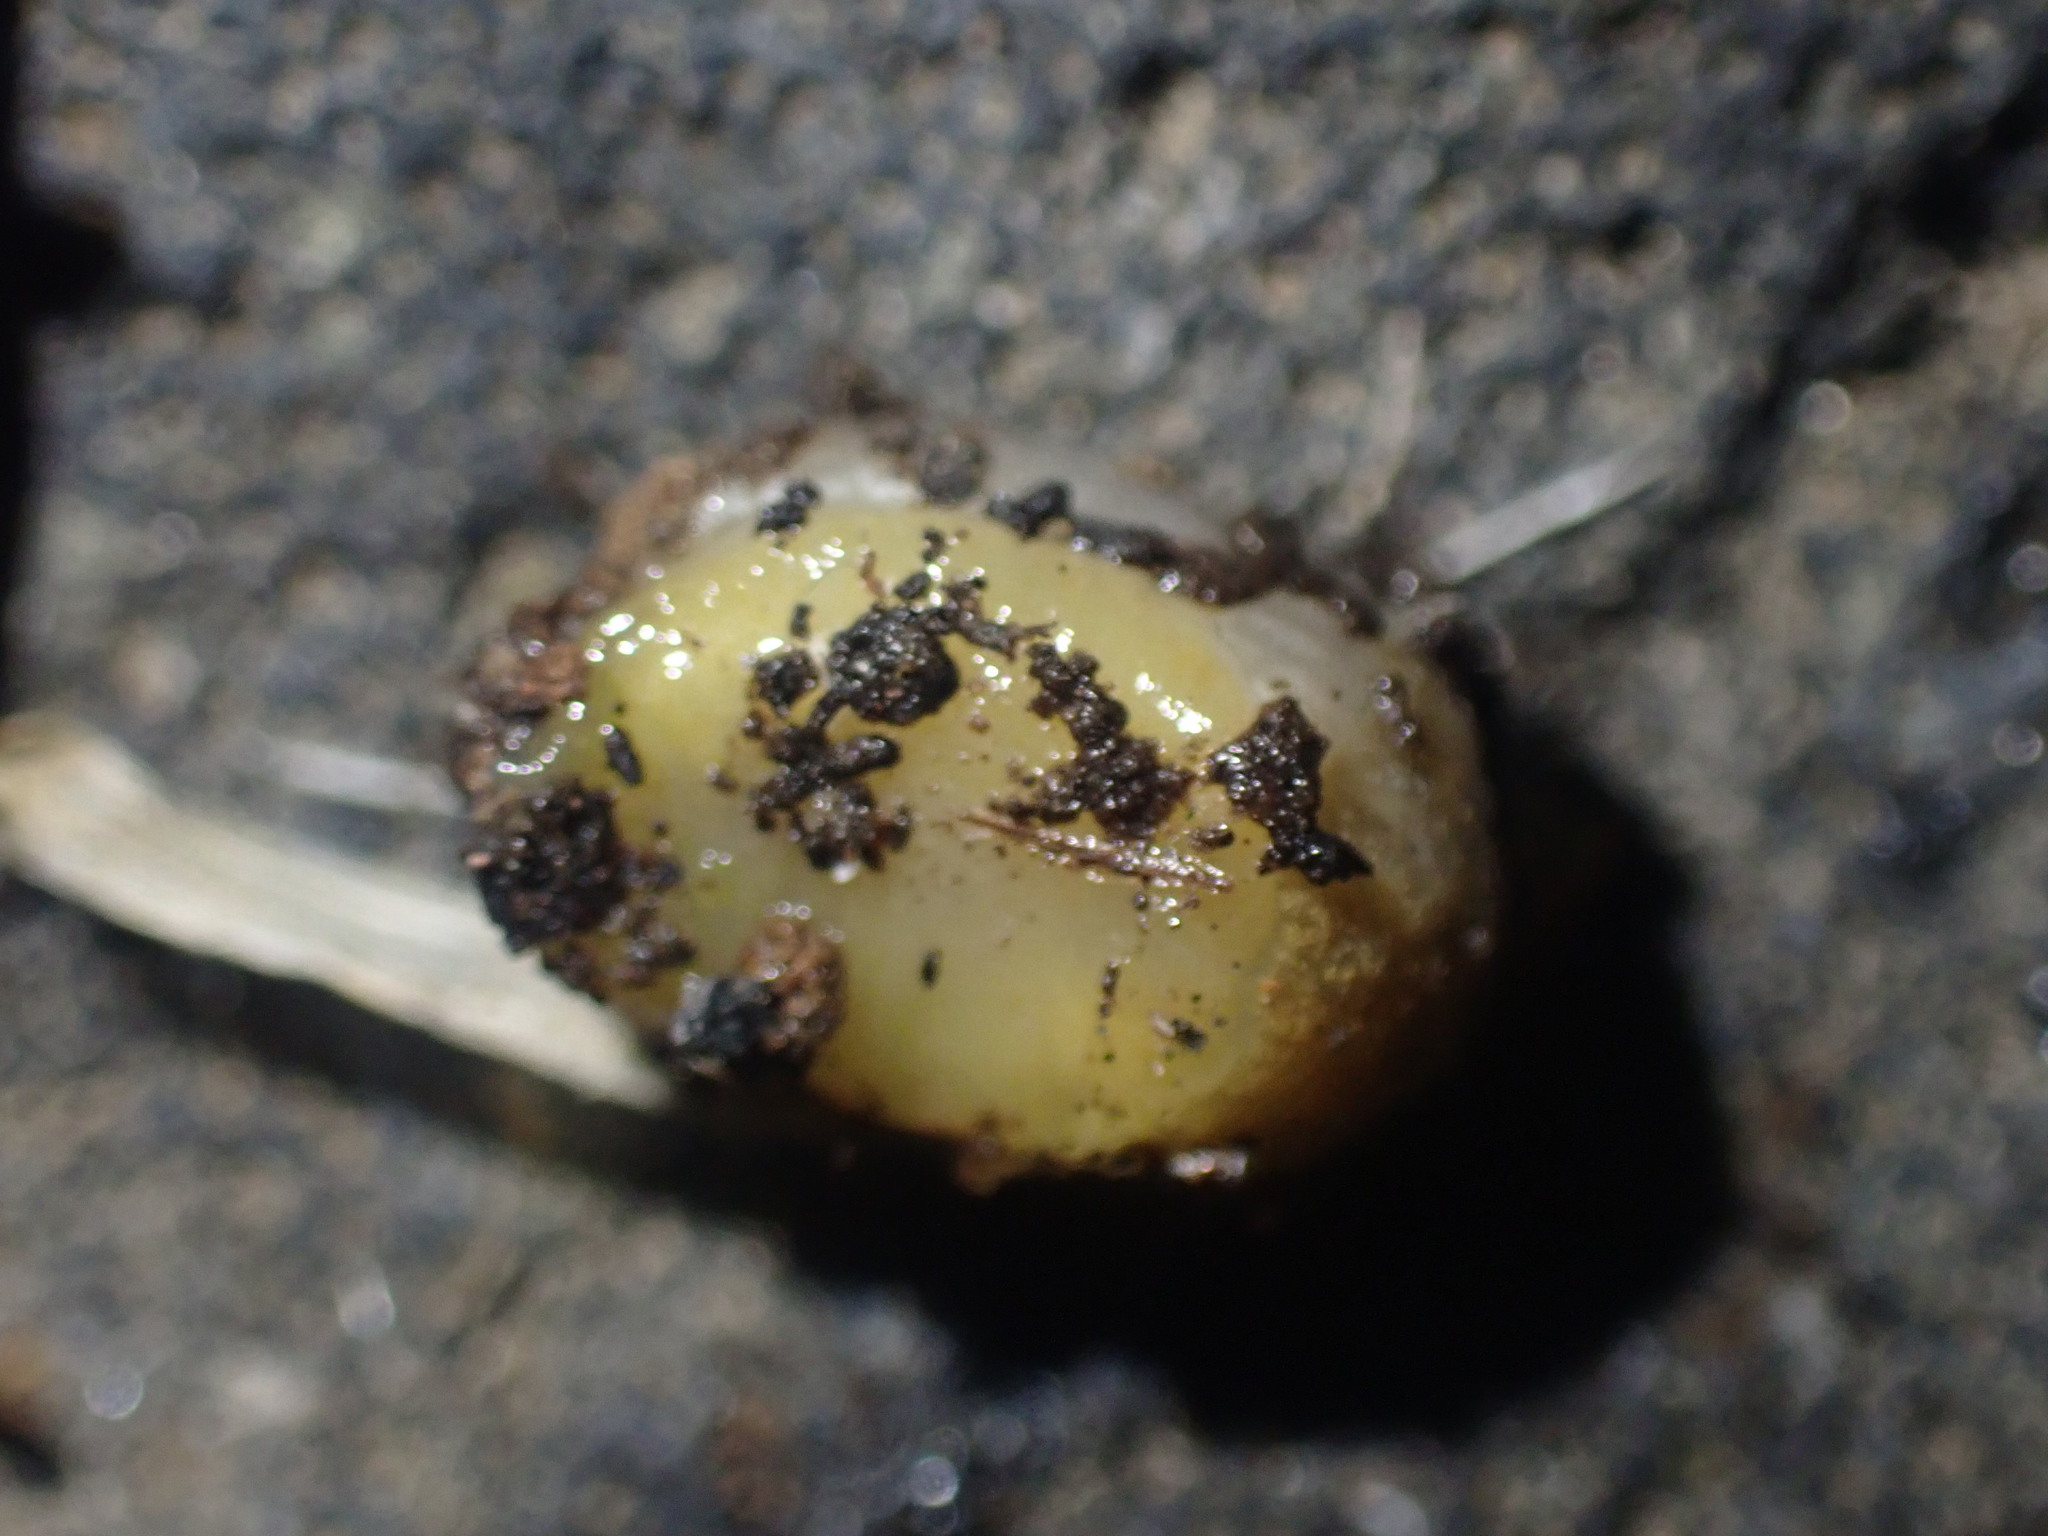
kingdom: Animalia
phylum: Mollusca
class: Gastropoda
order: Stylommatophora
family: Arionidae
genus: Arion
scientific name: Arion intermedius
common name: Hedgehog slug
